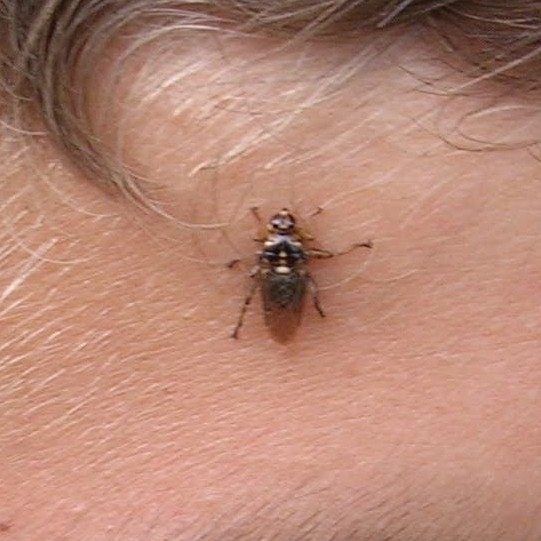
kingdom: Animalia
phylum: Arthropoda
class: Insecta
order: Diptera
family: Hippoboscidae
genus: Hippobosca
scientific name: Hippobosca equina
